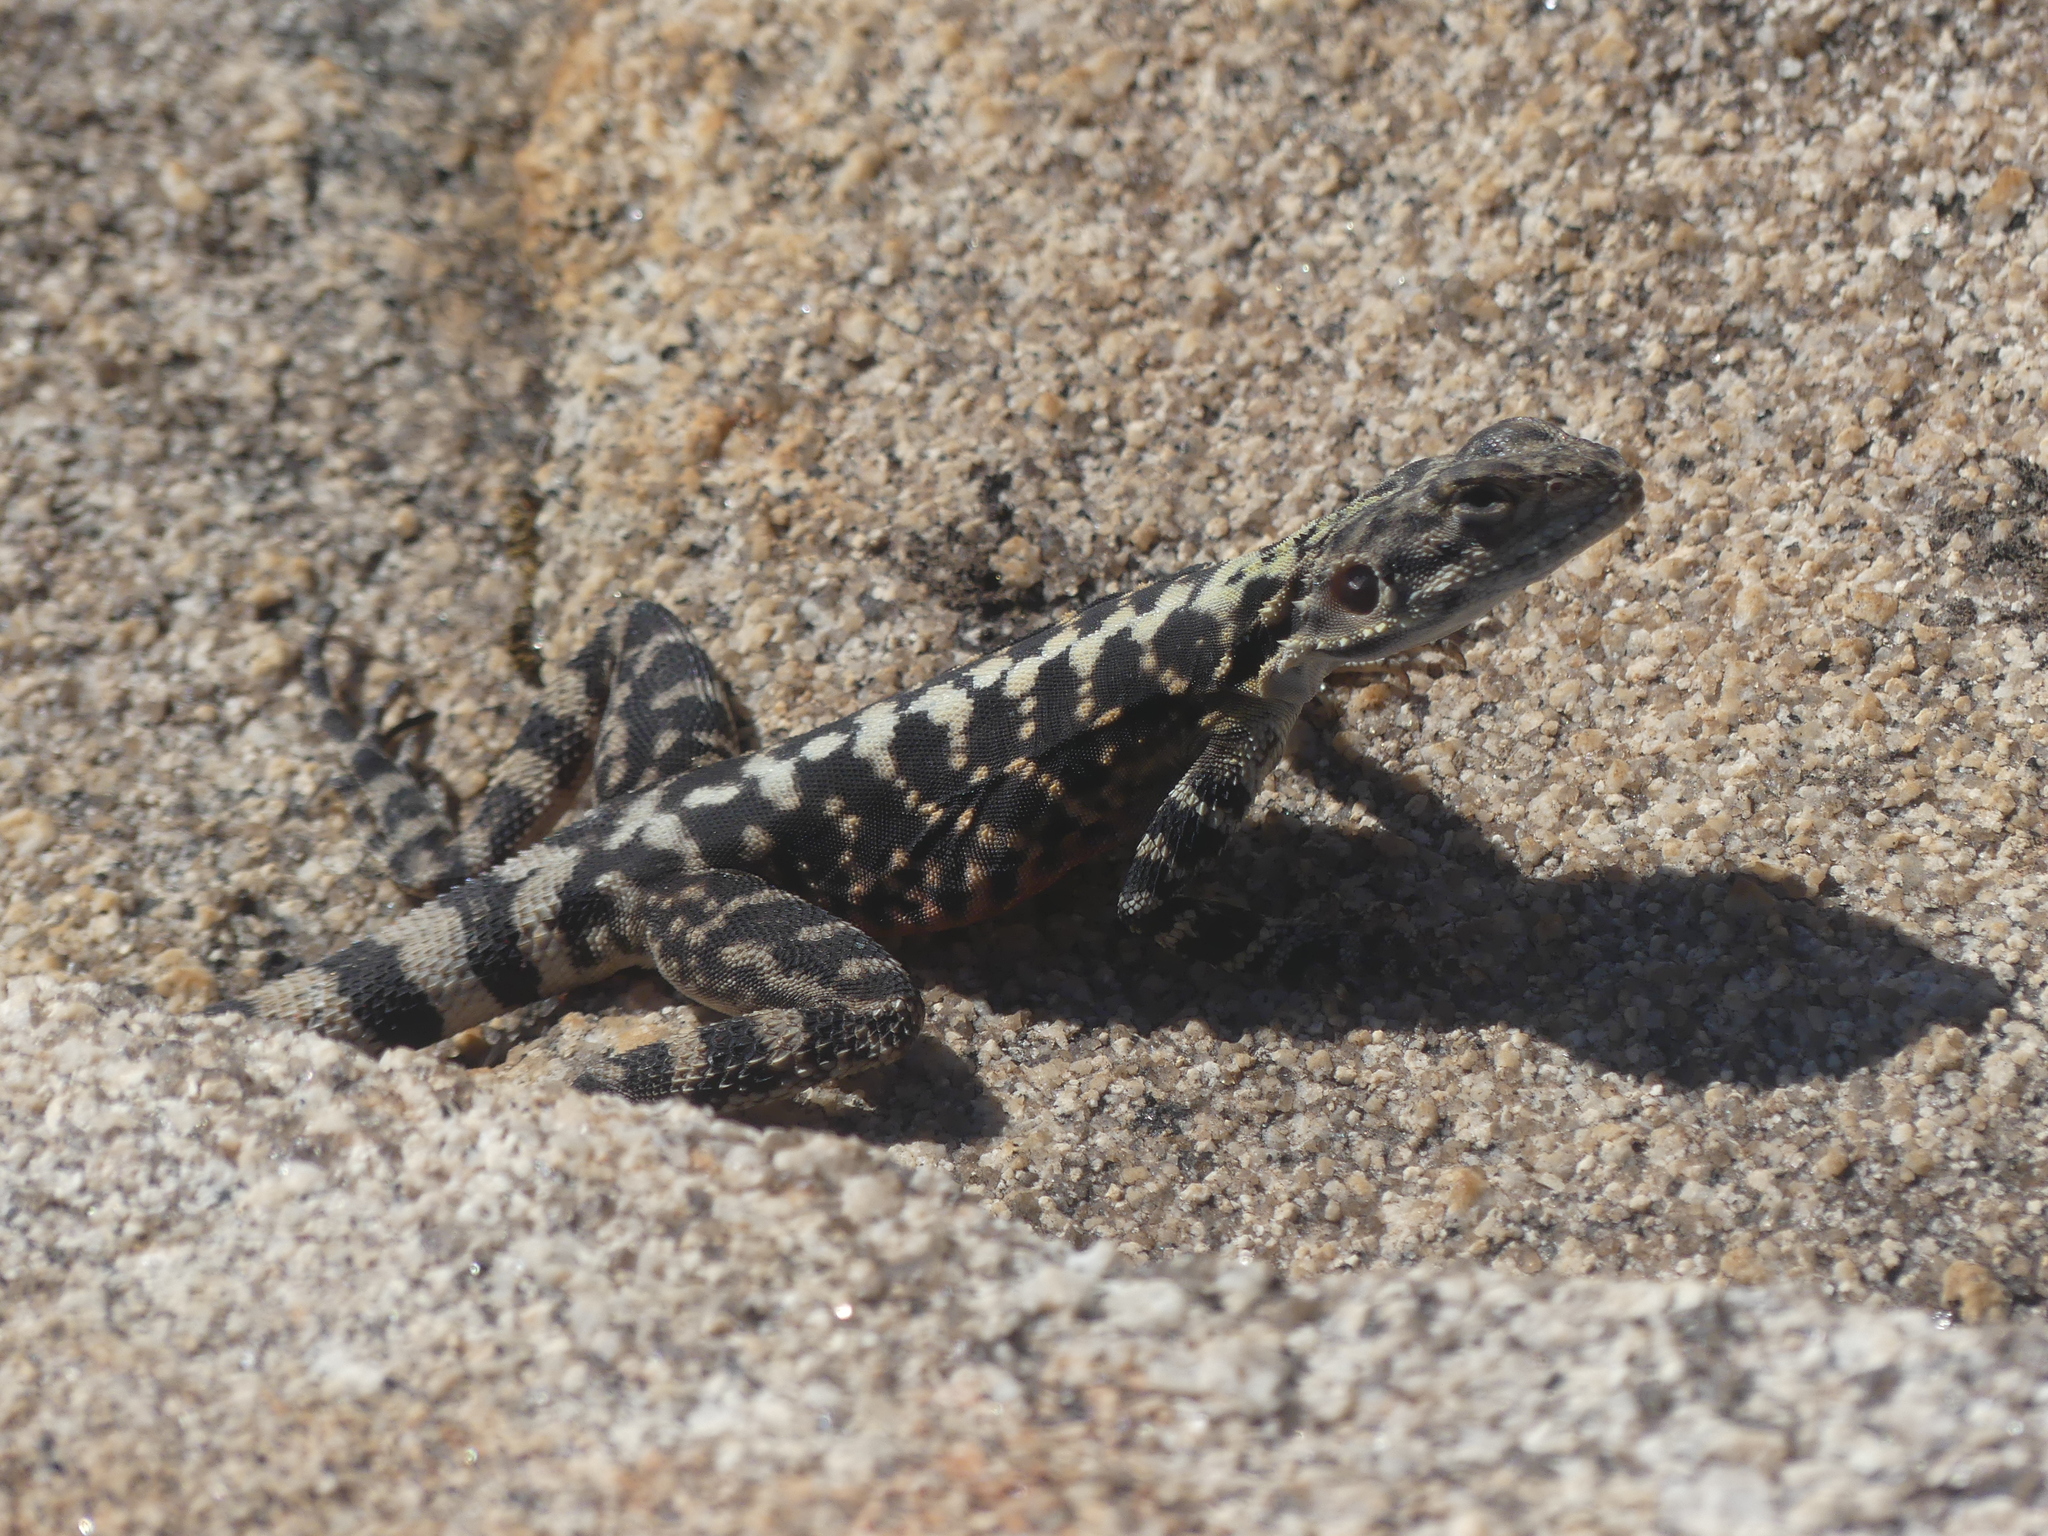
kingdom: Animalia
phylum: Chordata
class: Squamata
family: Agamidae
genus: Ctenophorus
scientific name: Ctenophorus ornatus
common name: Ornate crevice-dragon
